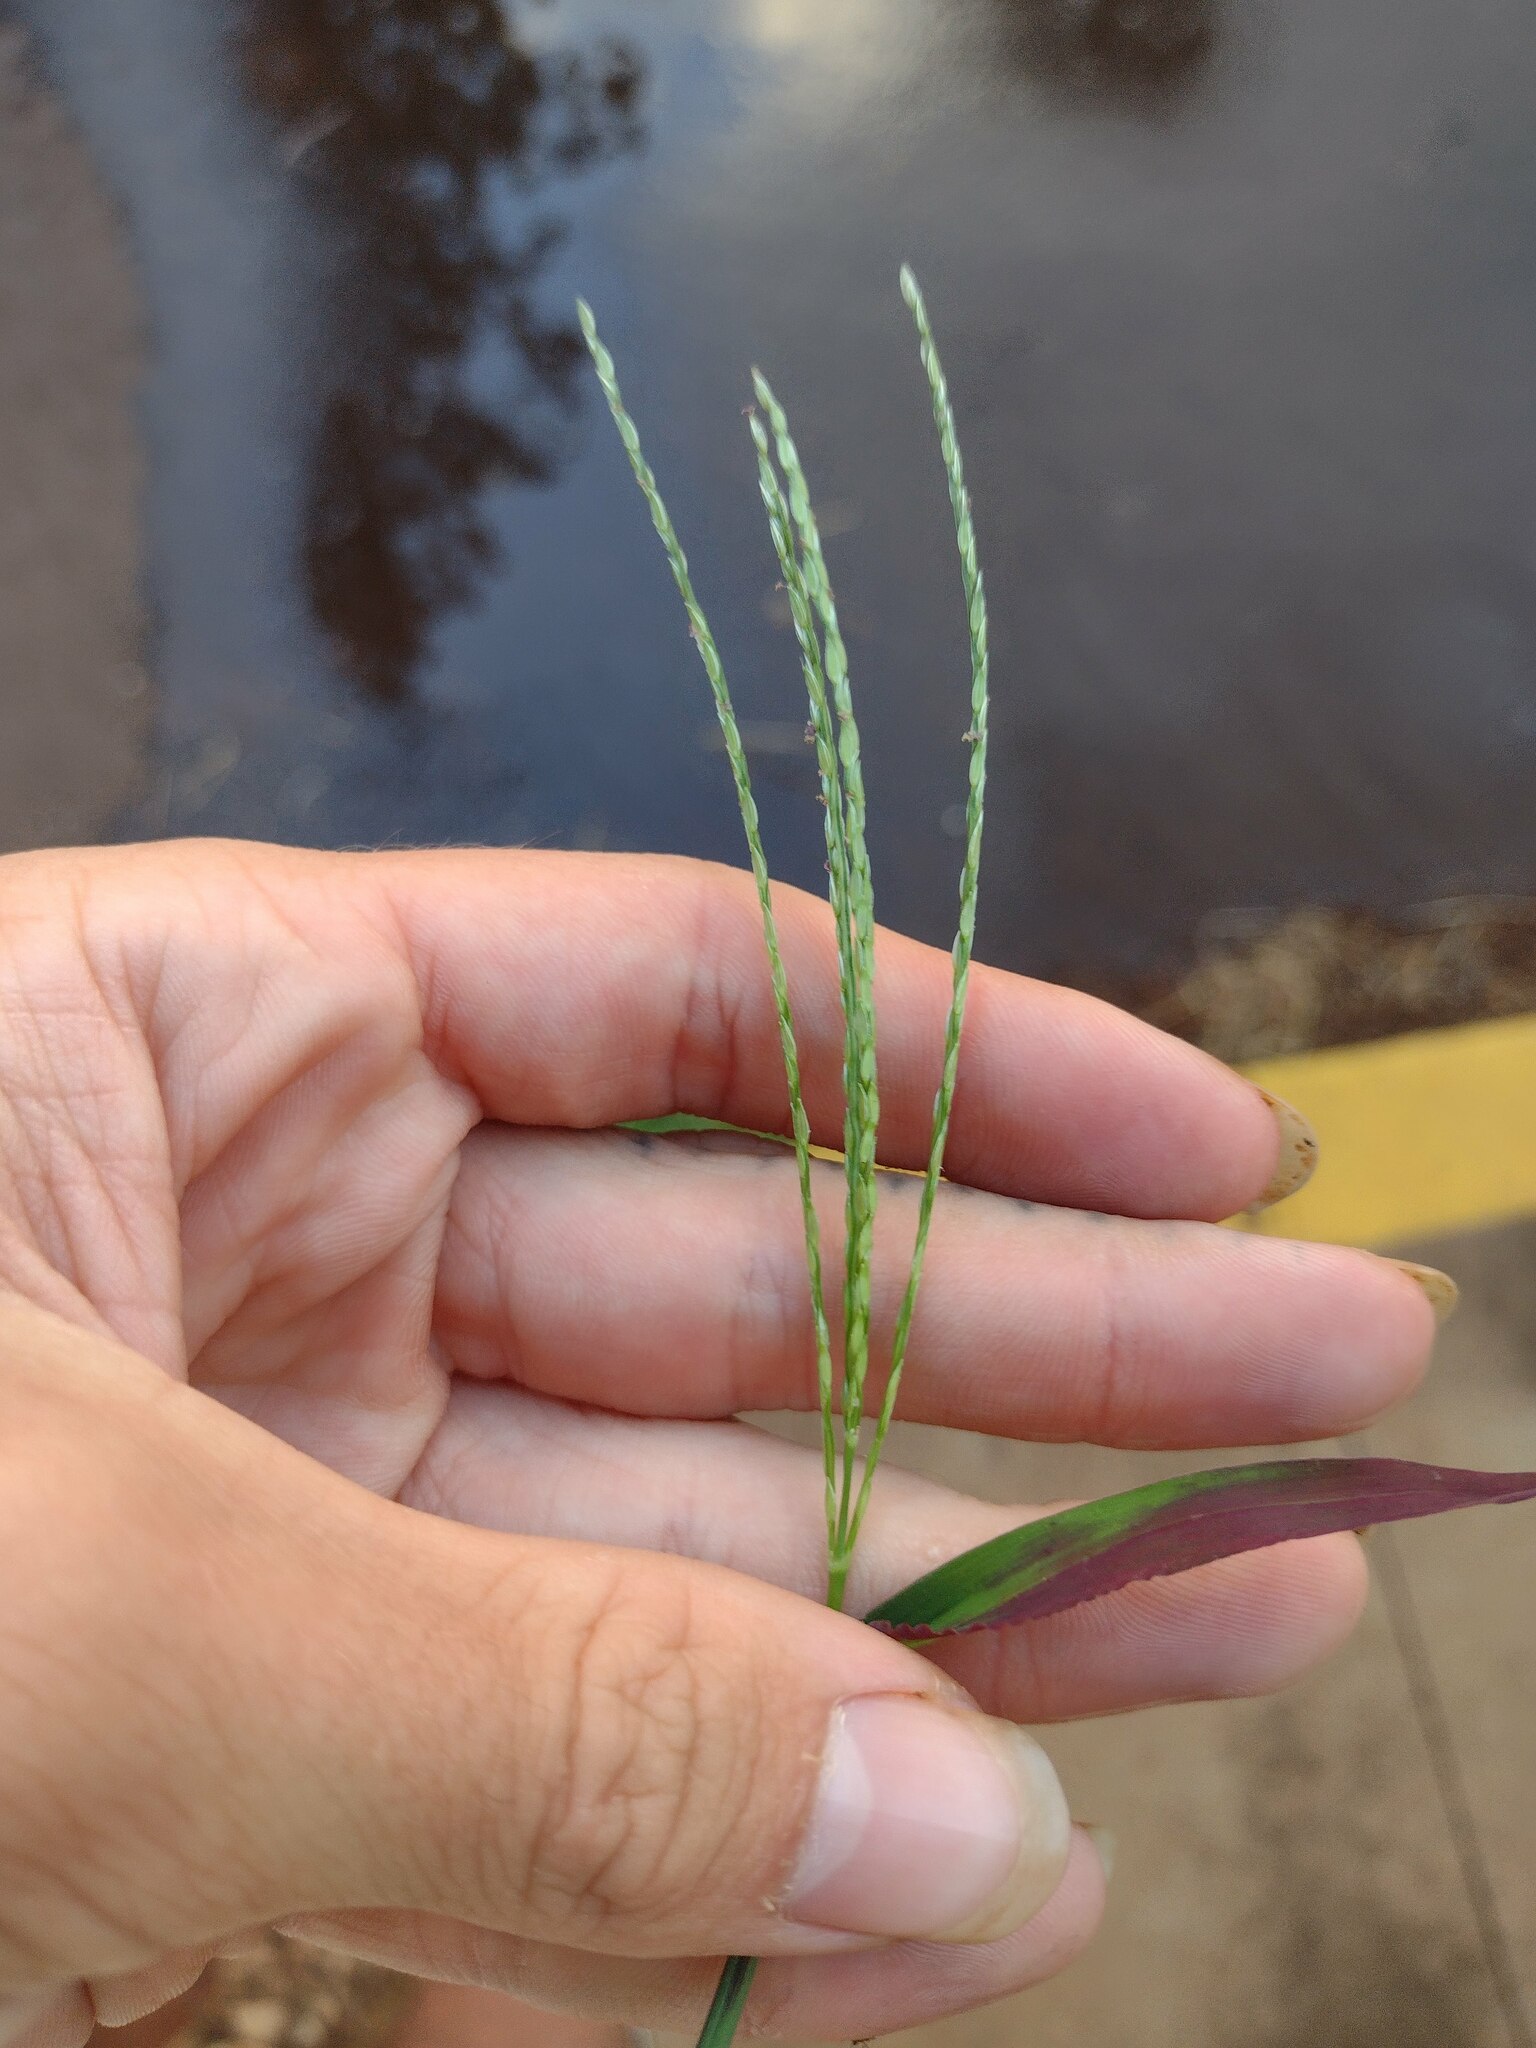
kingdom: Plantae
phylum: Tracheophyta
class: Liliopsida
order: Poales
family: Poaceae
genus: Digitaria
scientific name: Digitaria ciliaris
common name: Tropical finger-grass
